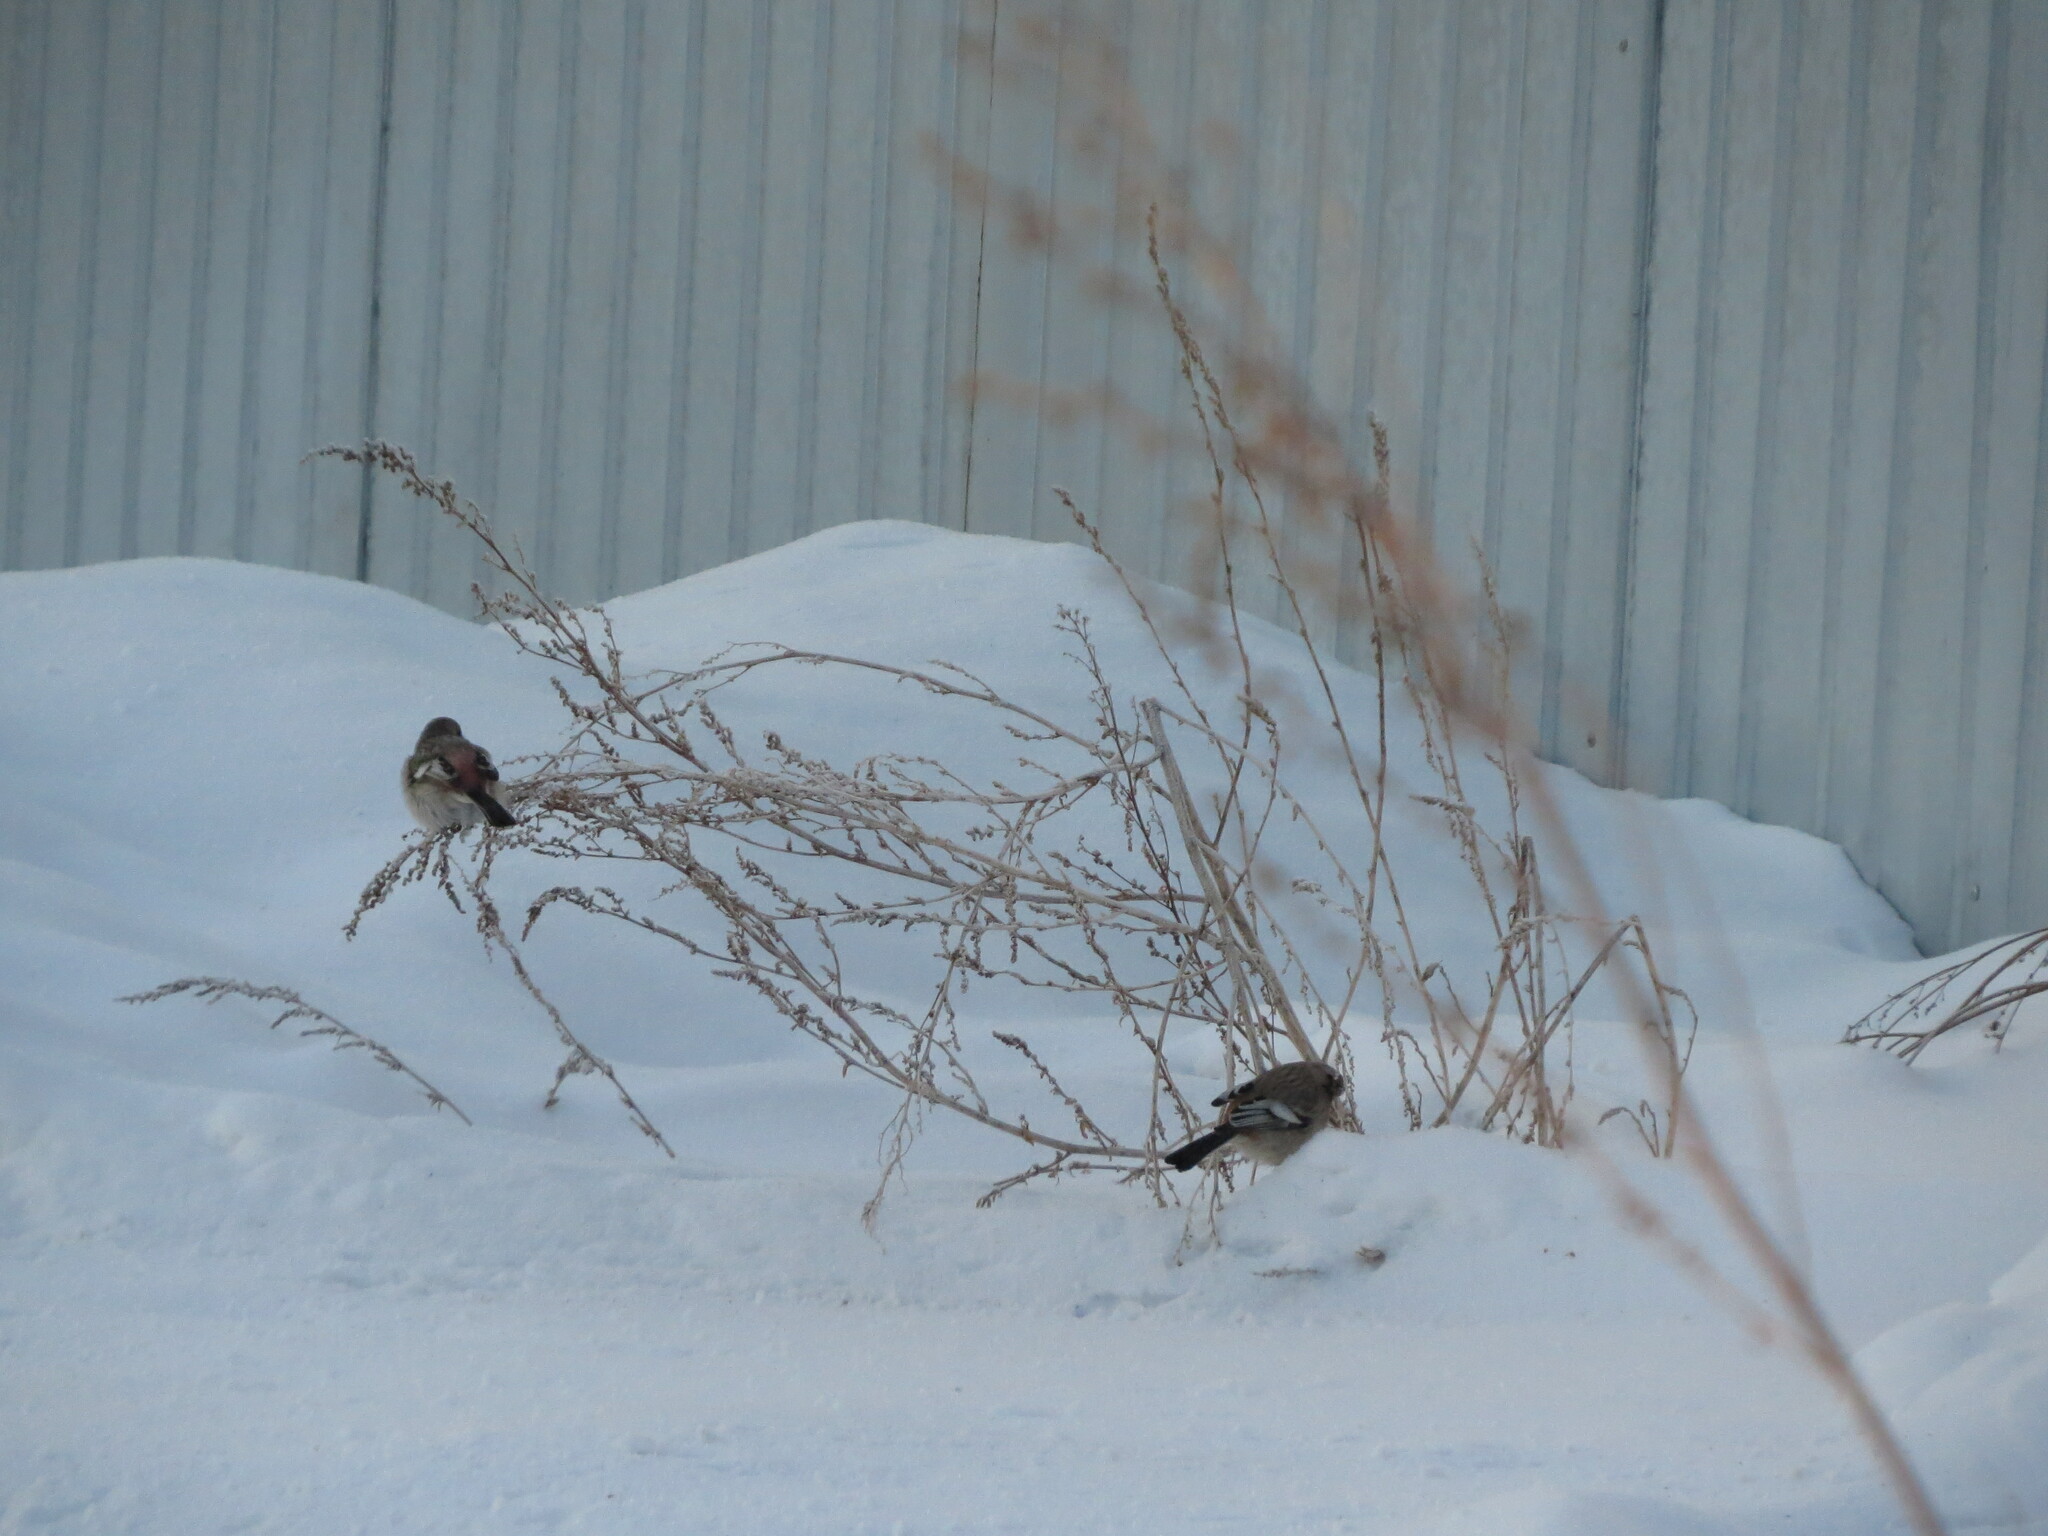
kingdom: Animalia
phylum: Chordata
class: Aves
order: Passeriformes
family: Fringillidae
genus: Carpodacus
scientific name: Carpodacus sibiricus
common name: Long-tailed rosefinch
